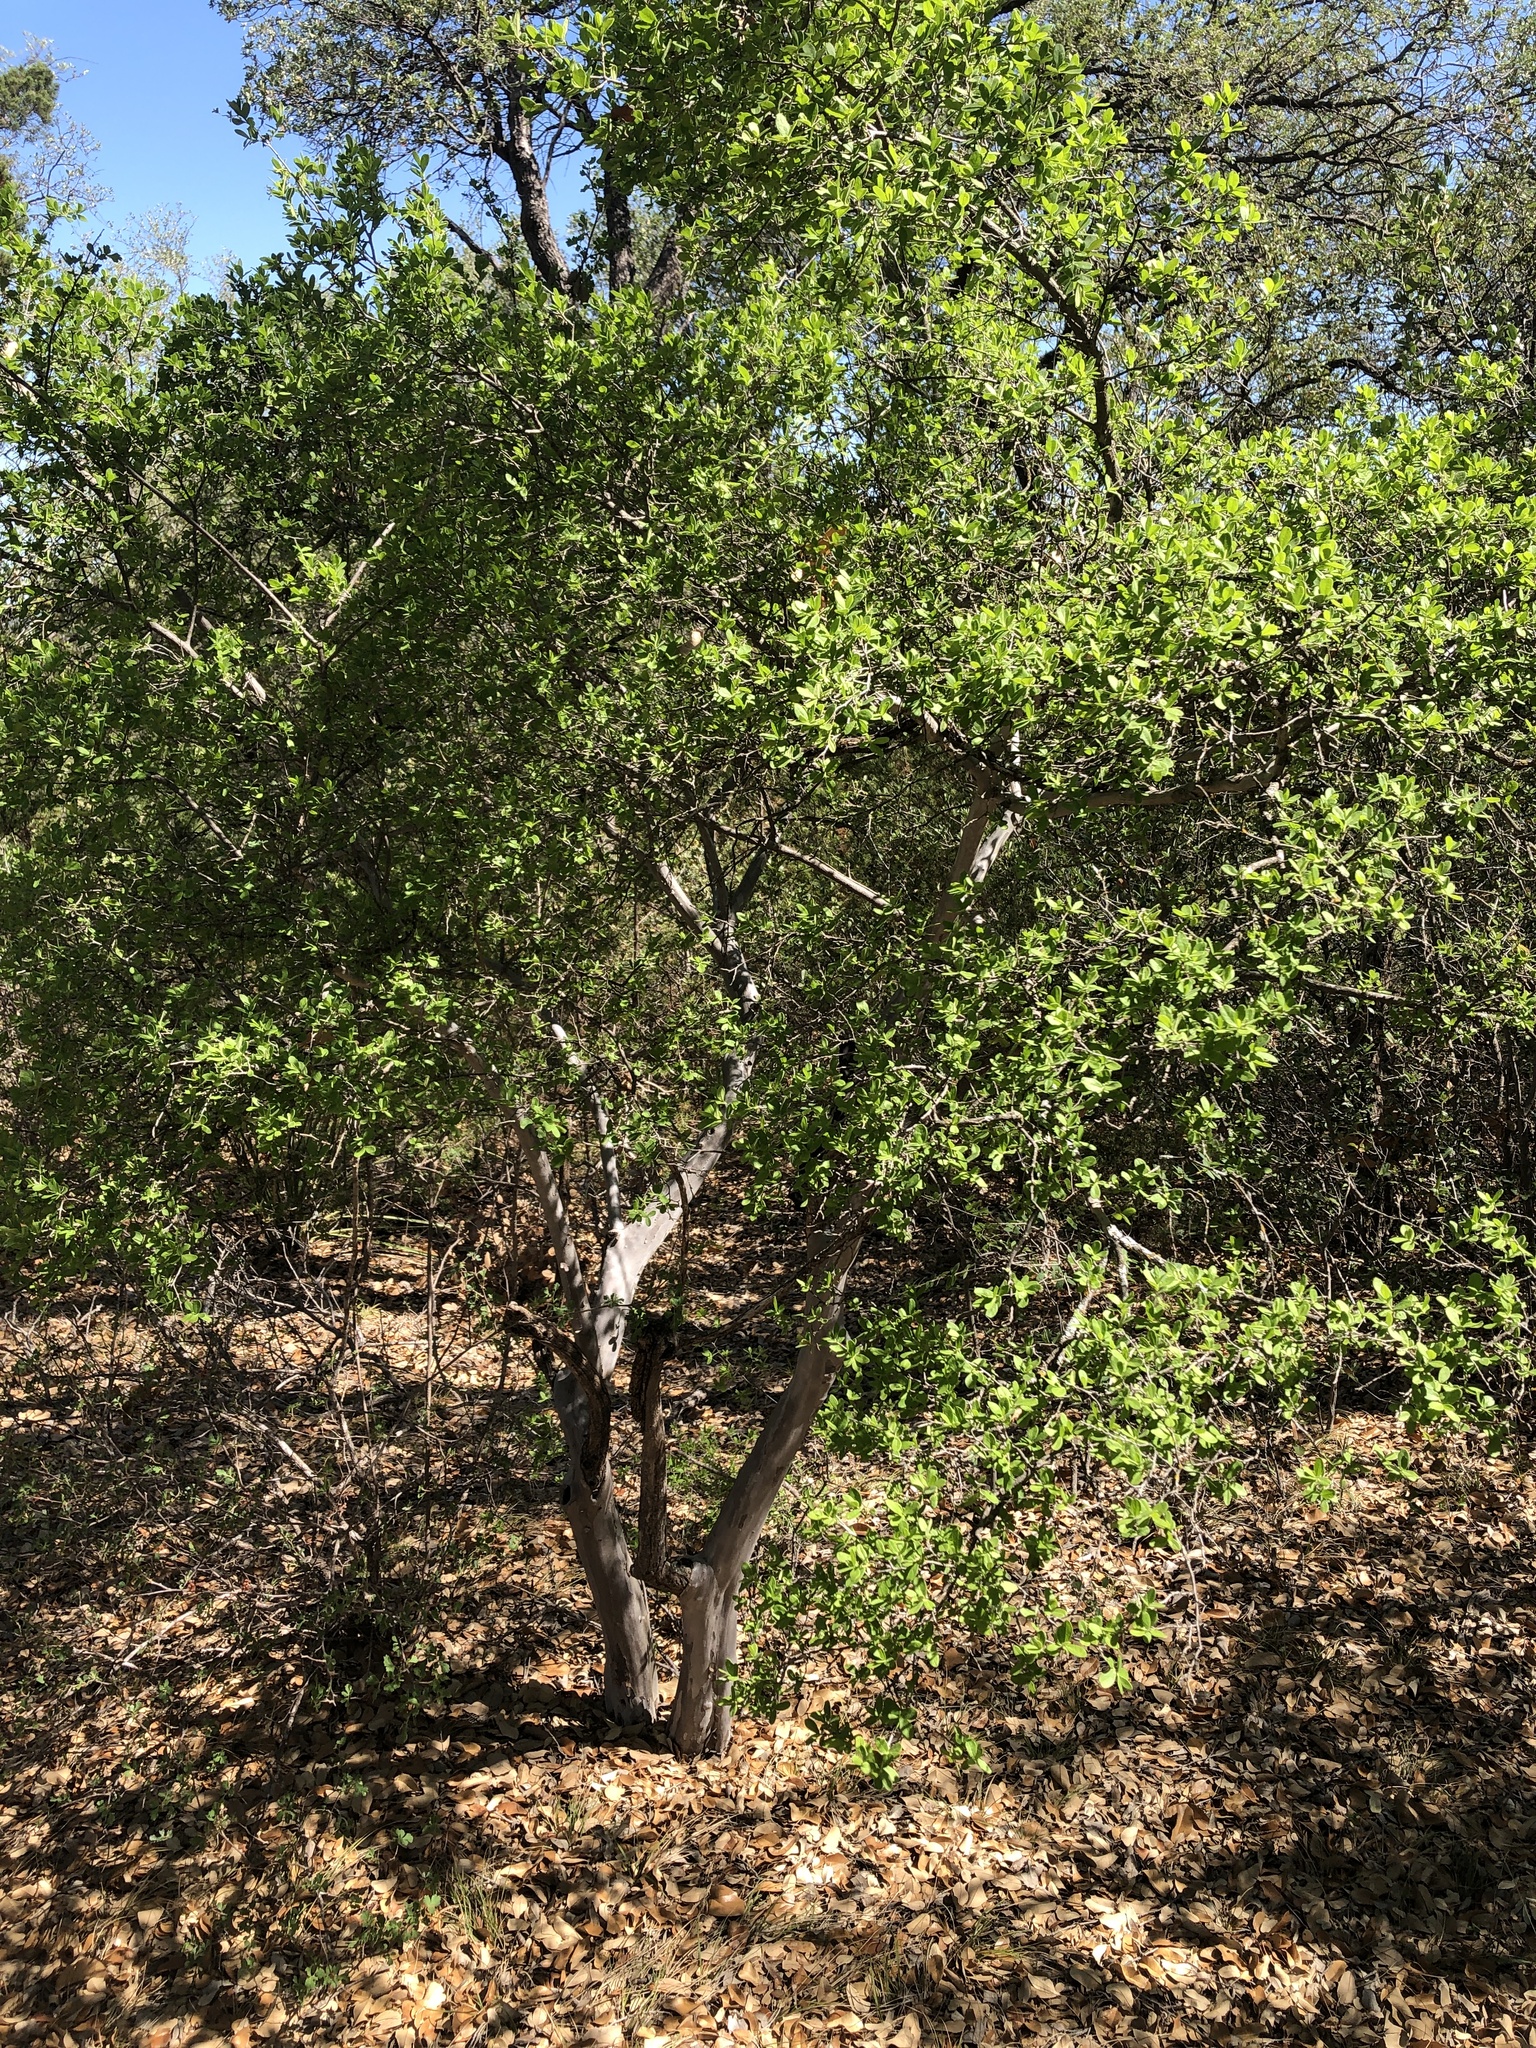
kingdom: Plantae
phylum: Tracheophyta
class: Magnoliopsida
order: Ericales
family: Ebenaceae
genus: Diospyros
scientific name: Diospyros texana
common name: Texas persimmon
